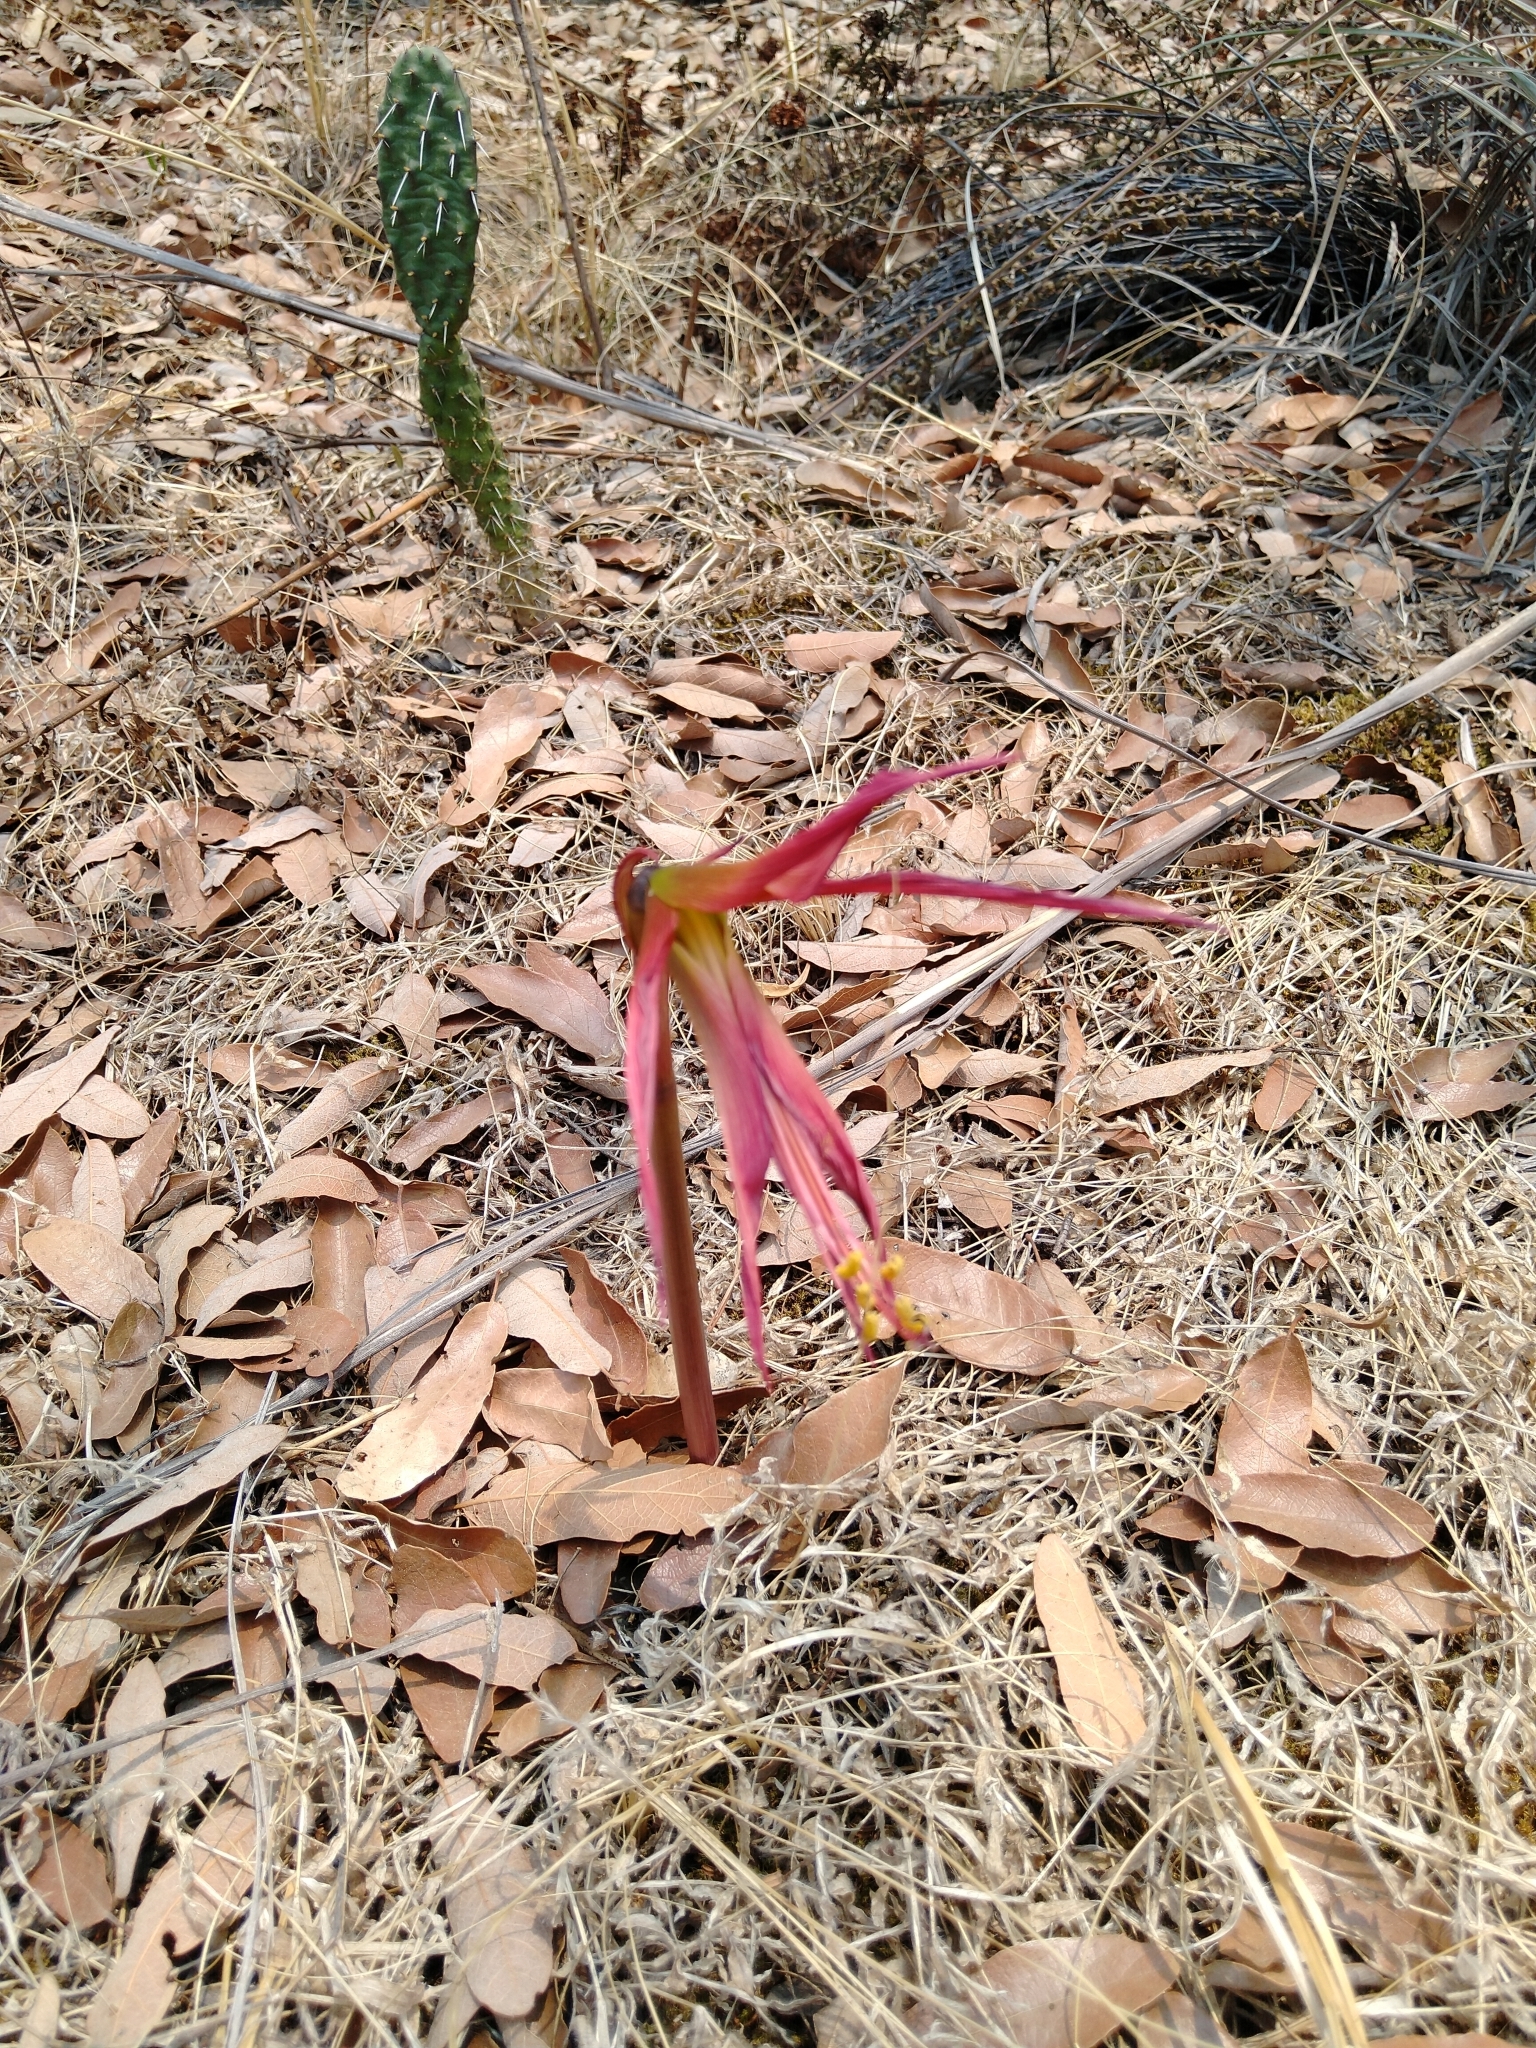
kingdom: Plantae
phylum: Tracheophyta
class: Liliopsida
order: Asparagales
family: Amaryllidaceae
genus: Sprekelia
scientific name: Sprekelia formosissima
